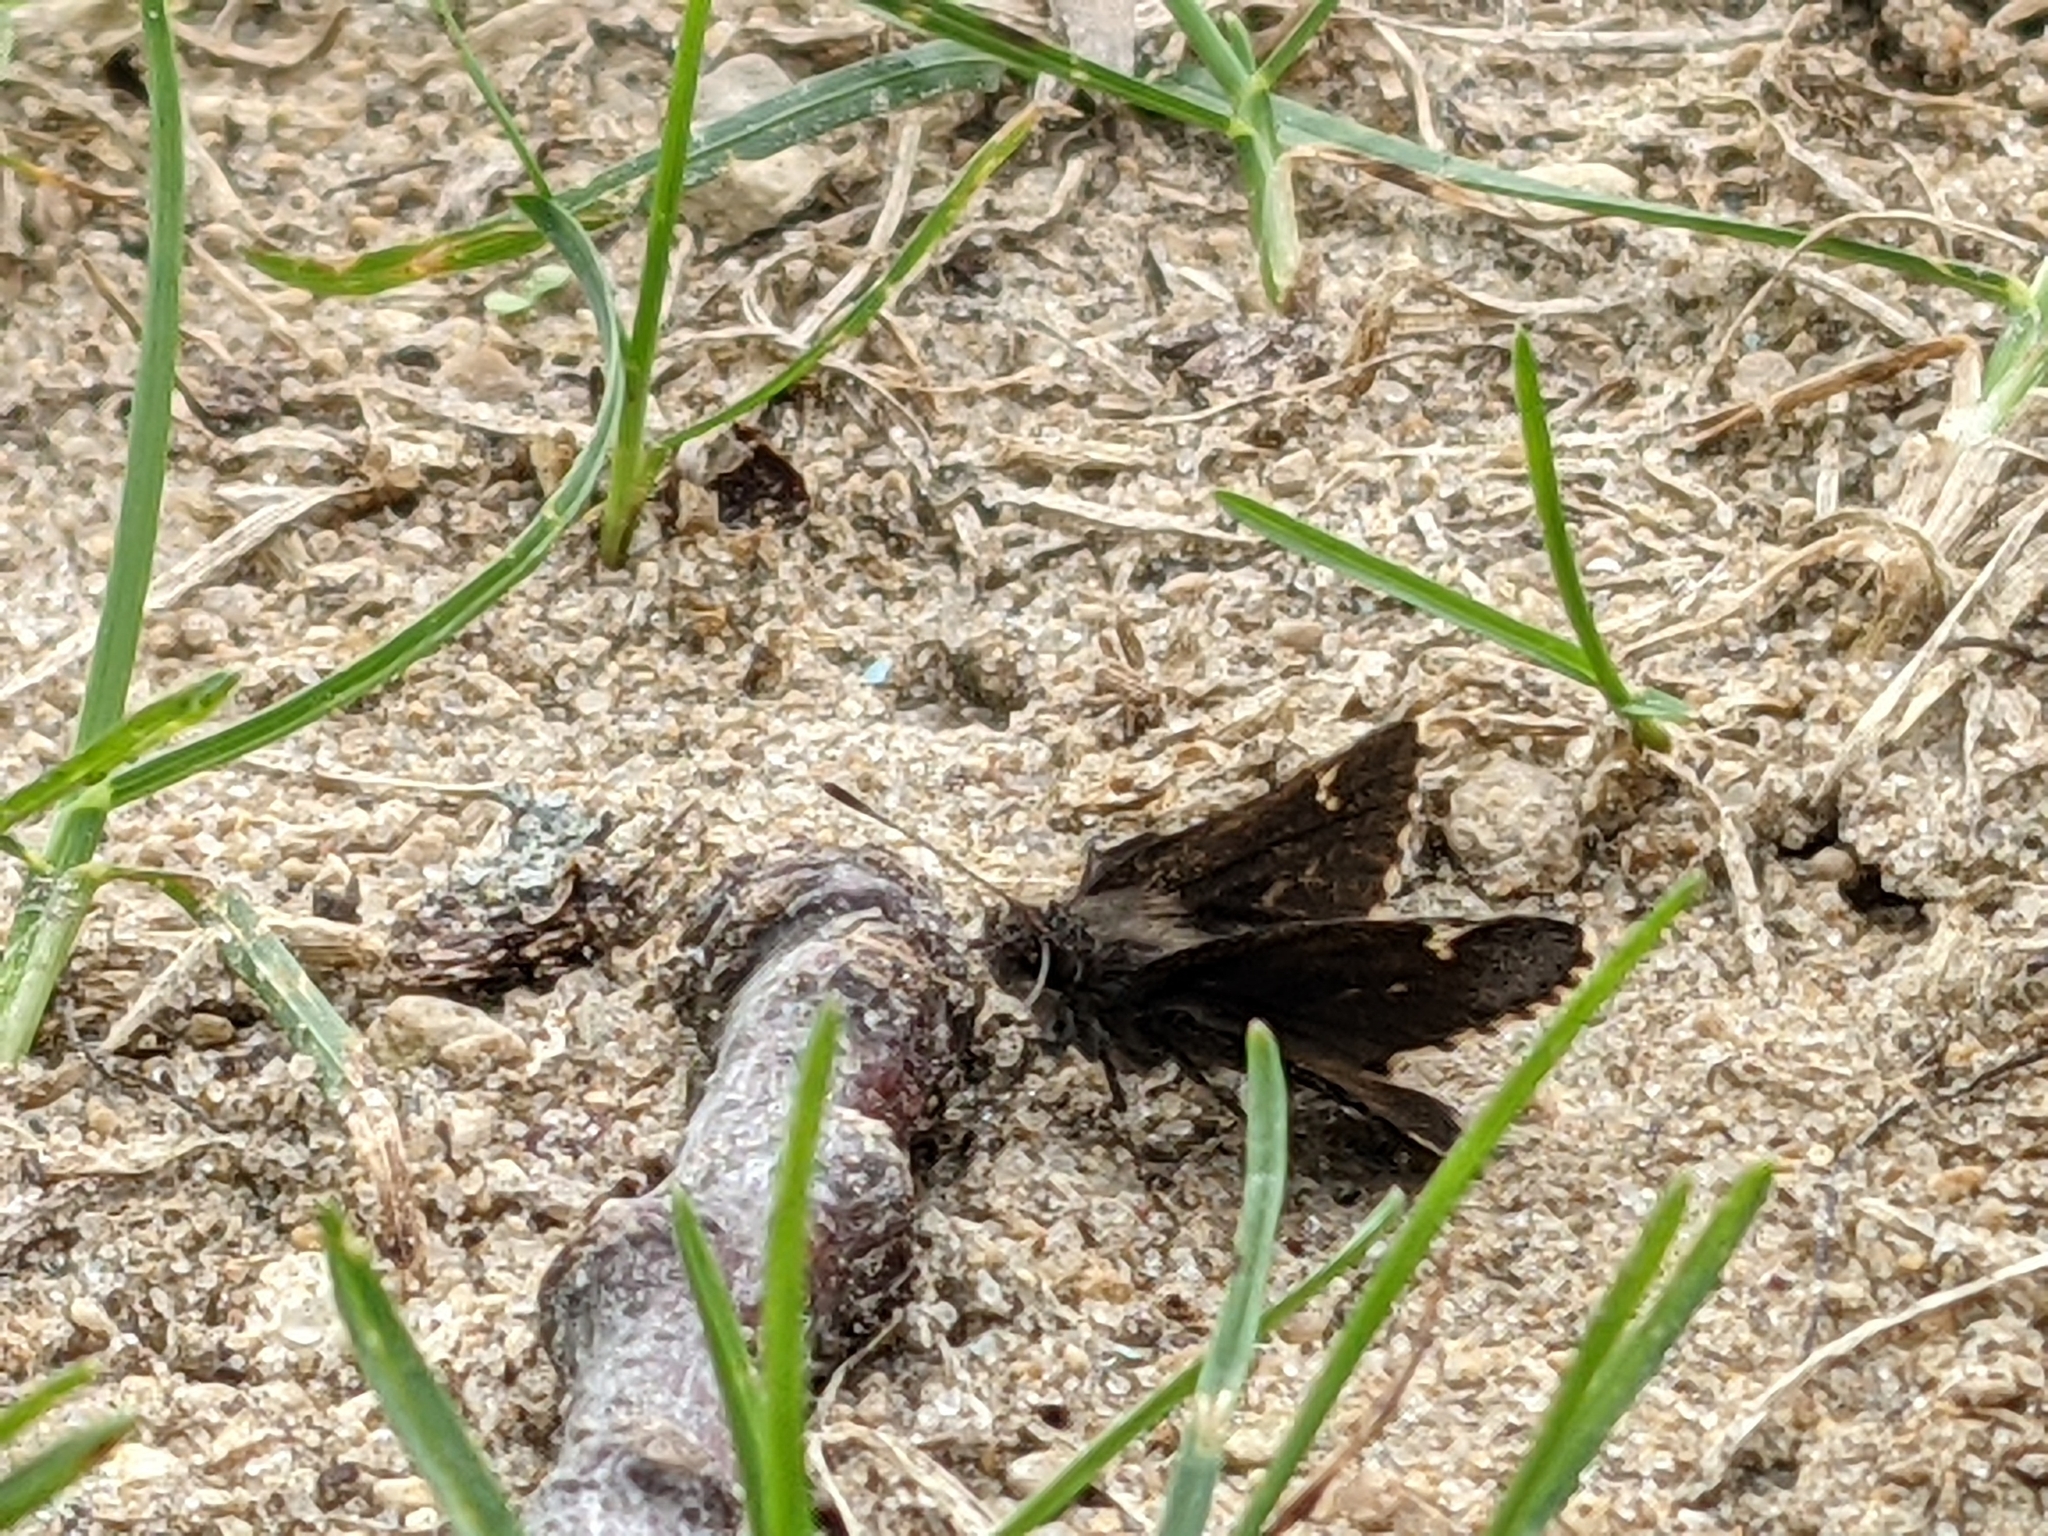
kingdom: Animalia
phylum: Arthropoda
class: Insecta
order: Lepidoptera
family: Hesperiidae
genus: Mastor
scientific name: Mastor vialis
